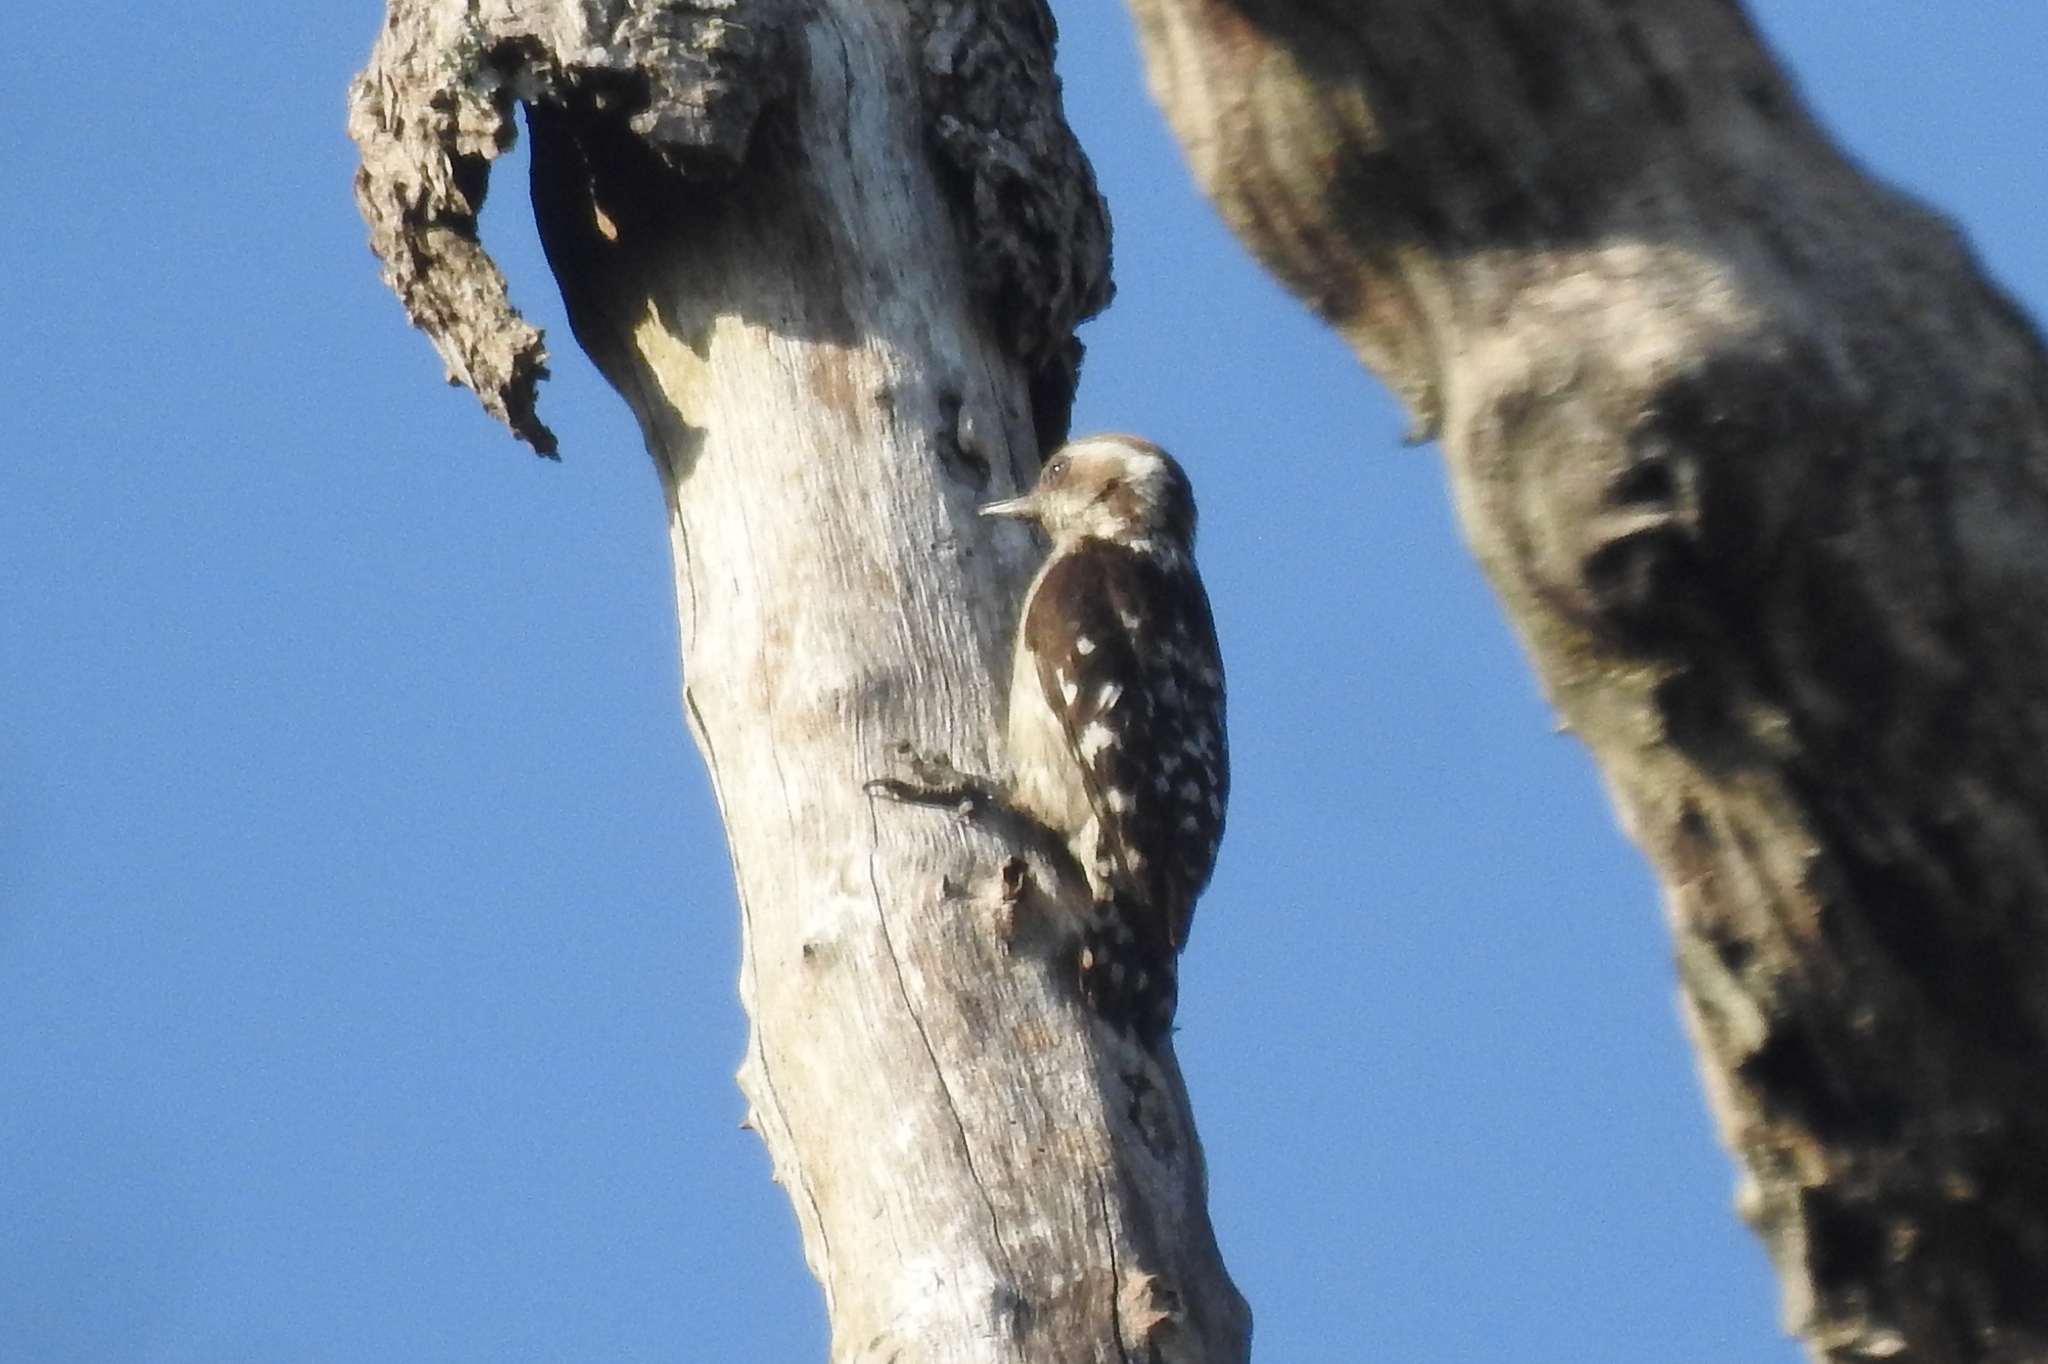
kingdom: Animalia
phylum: Chordata
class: Aves
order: Piciformes
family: Picidae
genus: Yungipicus
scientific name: Yungipicus nanus
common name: Brown-capped pygmy woodpecker
